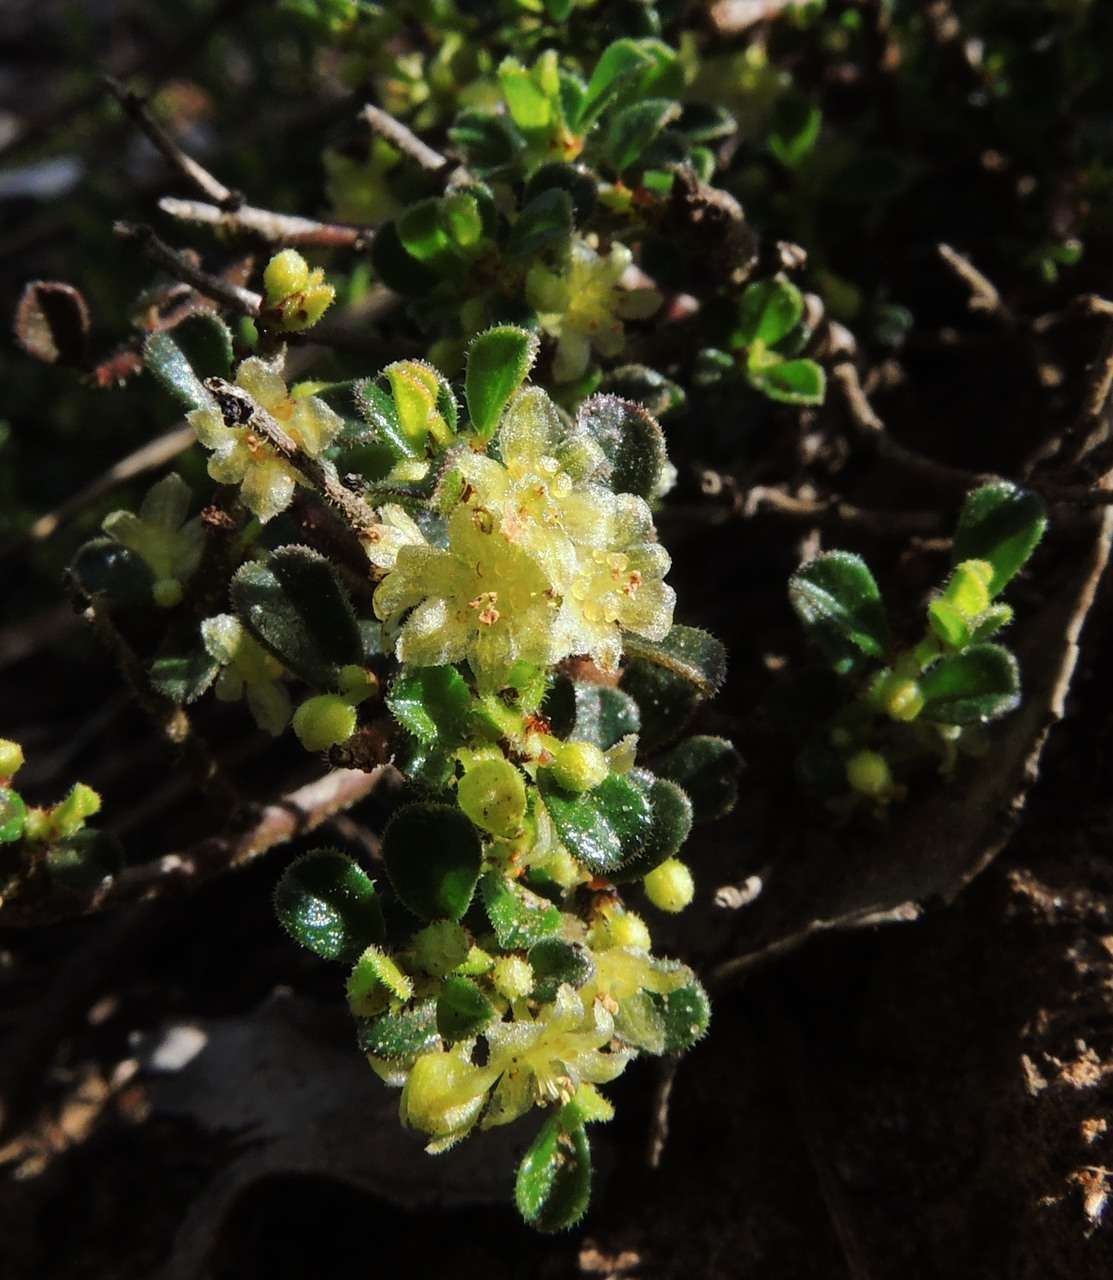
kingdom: Plantae
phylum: Tracheophyta
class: Magnoliopsida
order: Malpighiales
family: Phyllanthaceae
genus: Phyllanthus
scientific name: Phyllanthus hirtellus
